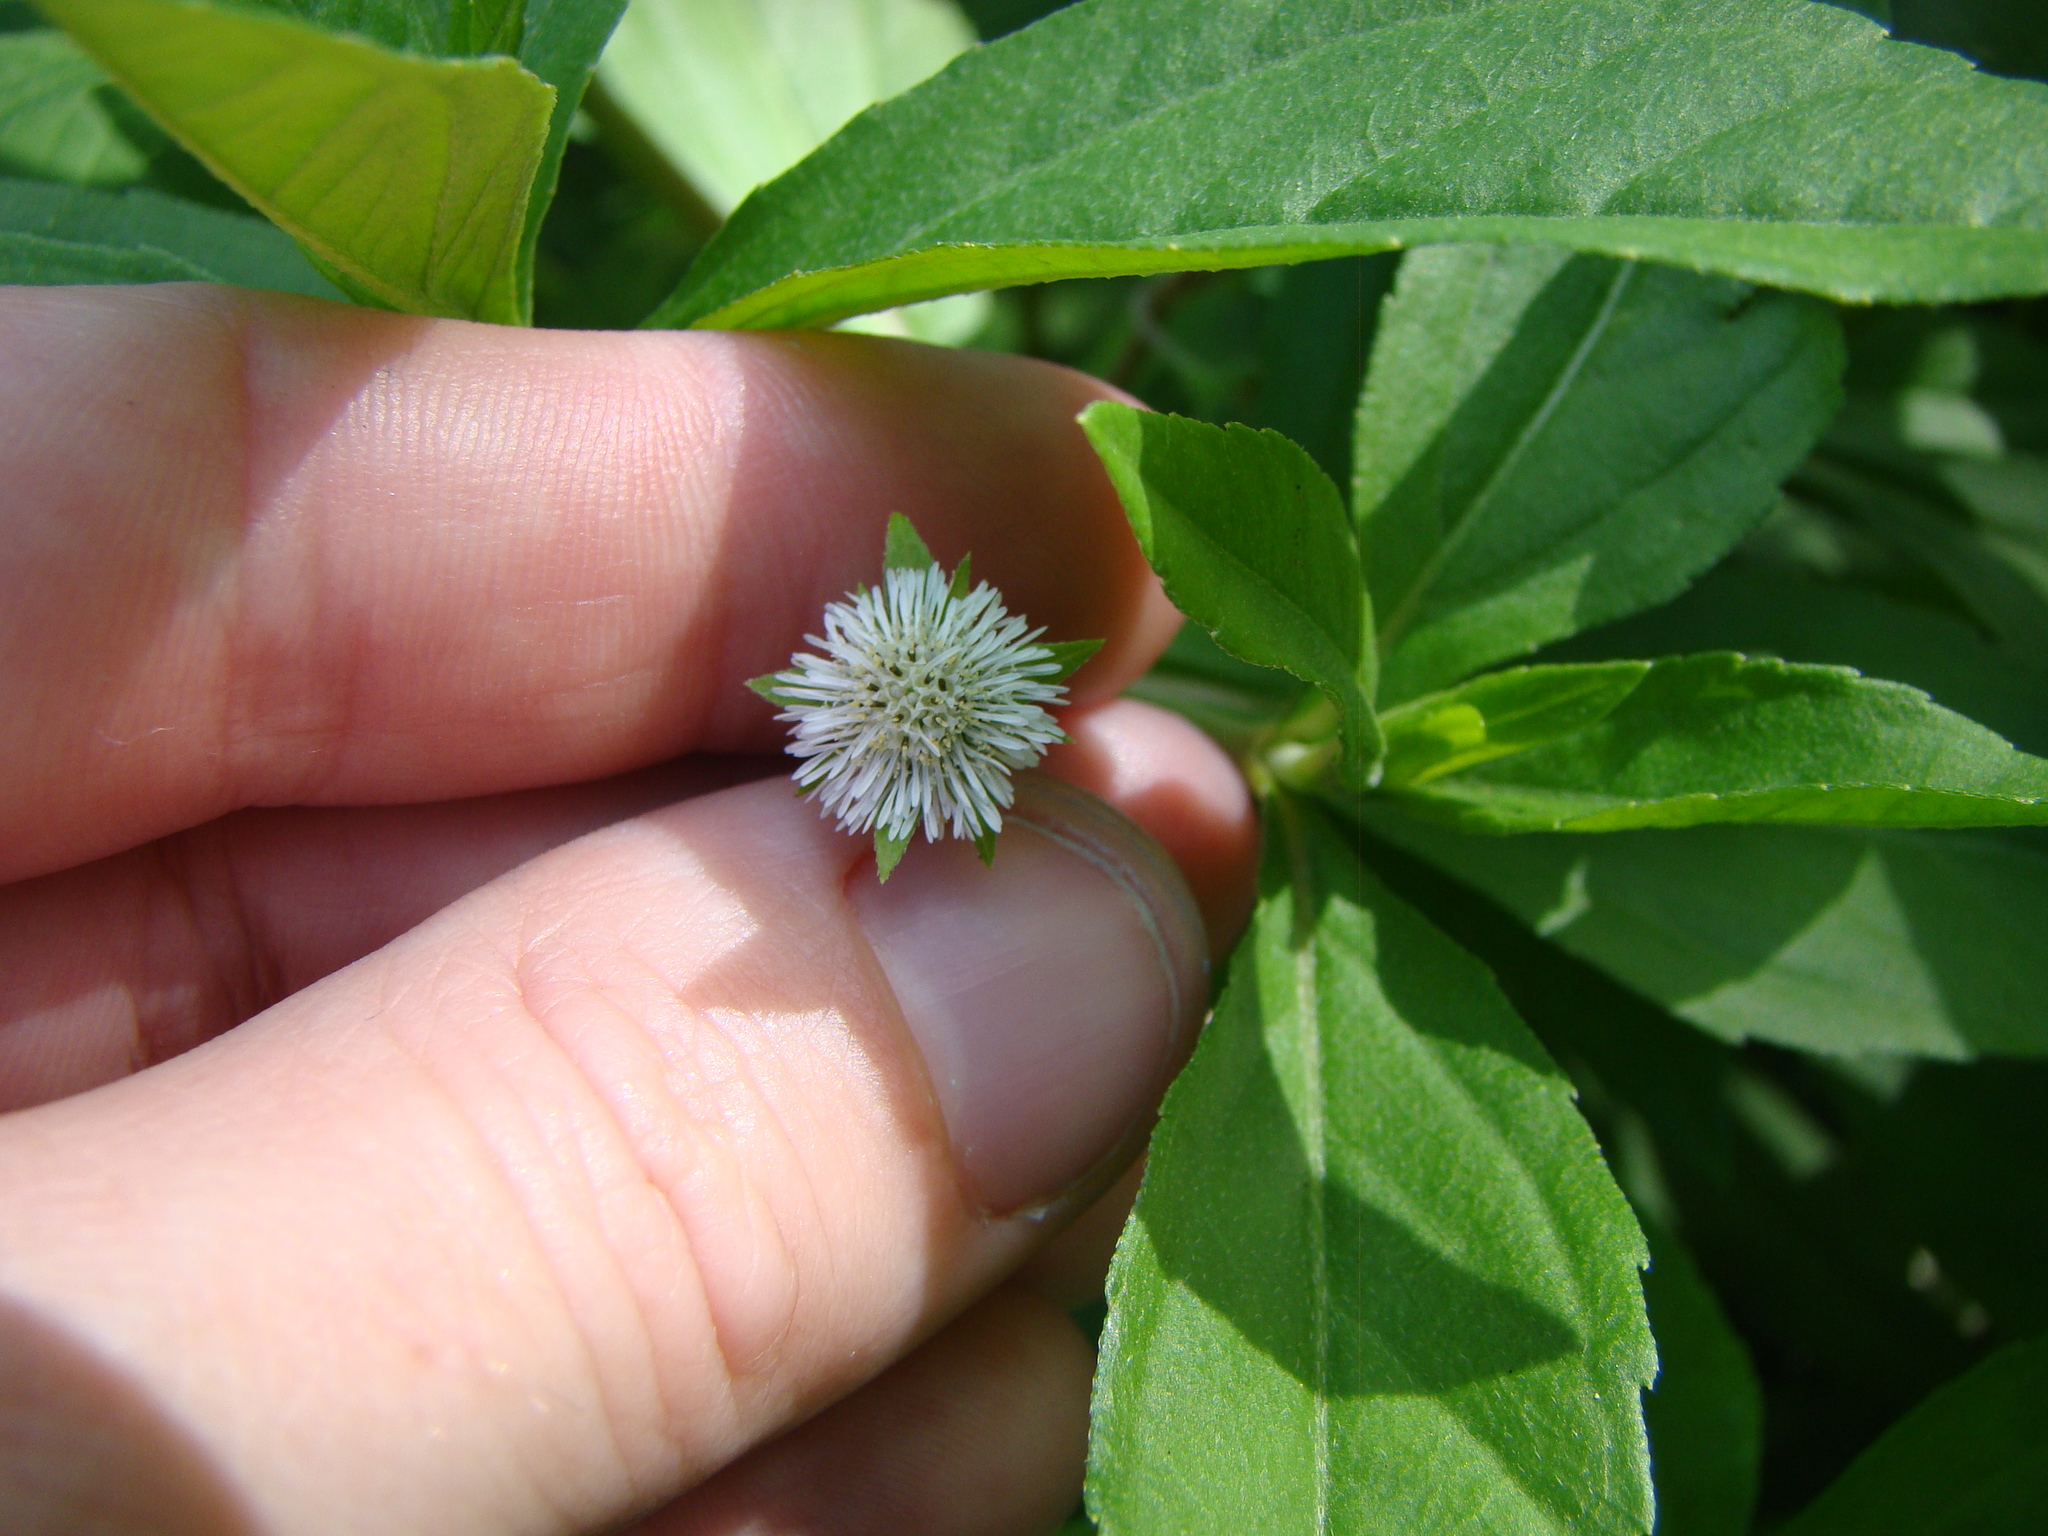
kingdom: Plantae
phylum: Tracheophyta
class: Magnoliopsida
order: Asterales
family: Asteraceae
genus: Eclipta
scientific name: Eclipta prostrata
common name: False daisy
